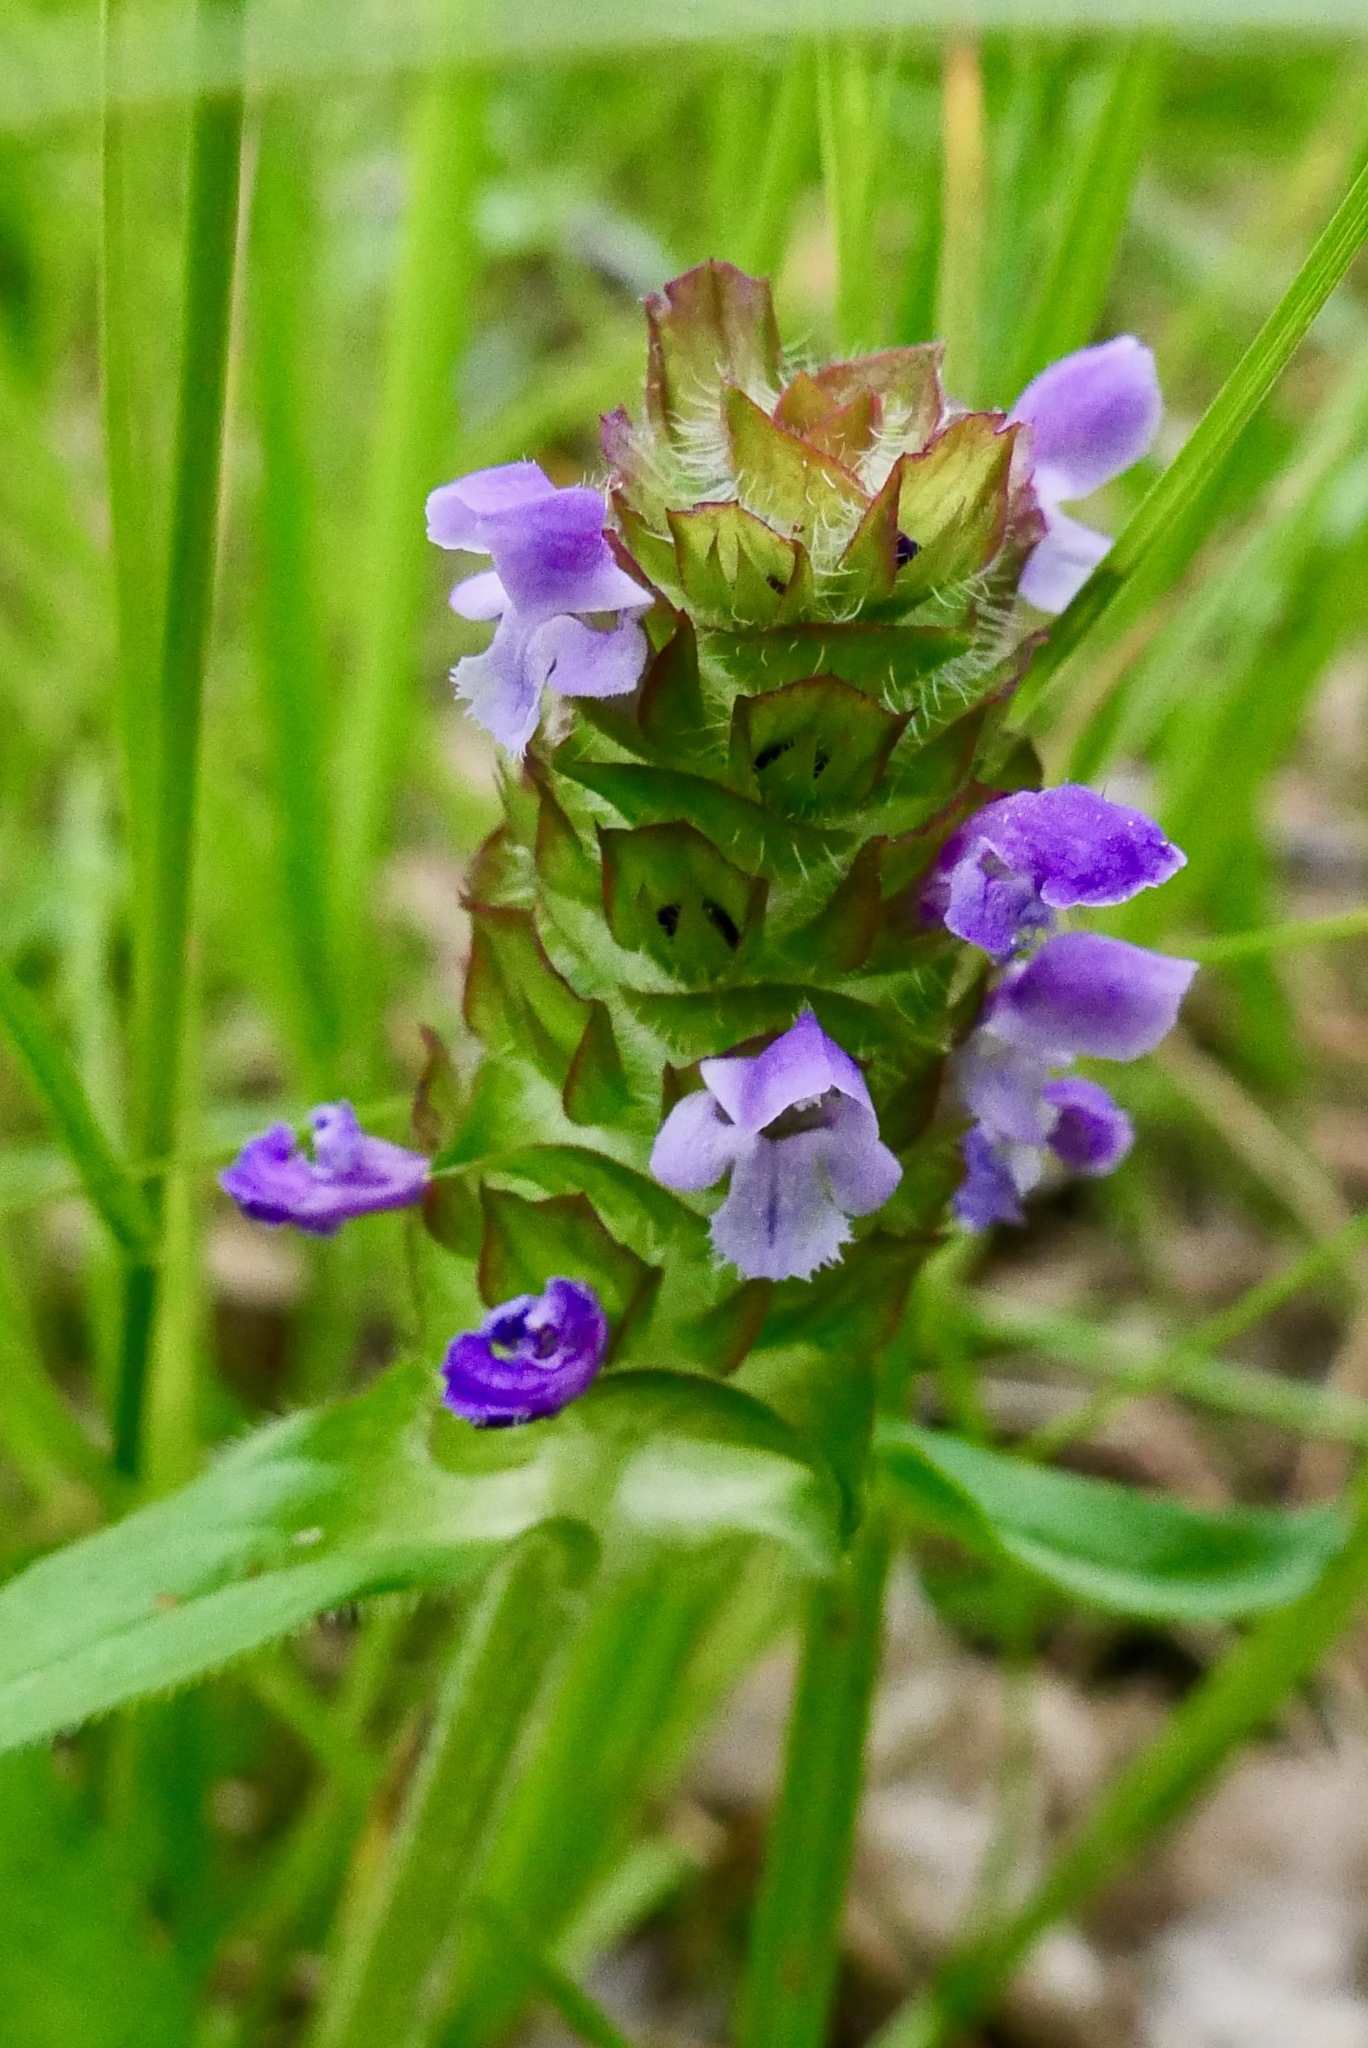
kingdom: Plantae
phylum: Tracheophyta
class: Magnoliopsida
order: Lamiales
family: Lamiaceae
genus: Prunella
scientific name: Prunella vulgaris
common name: Heal-all
